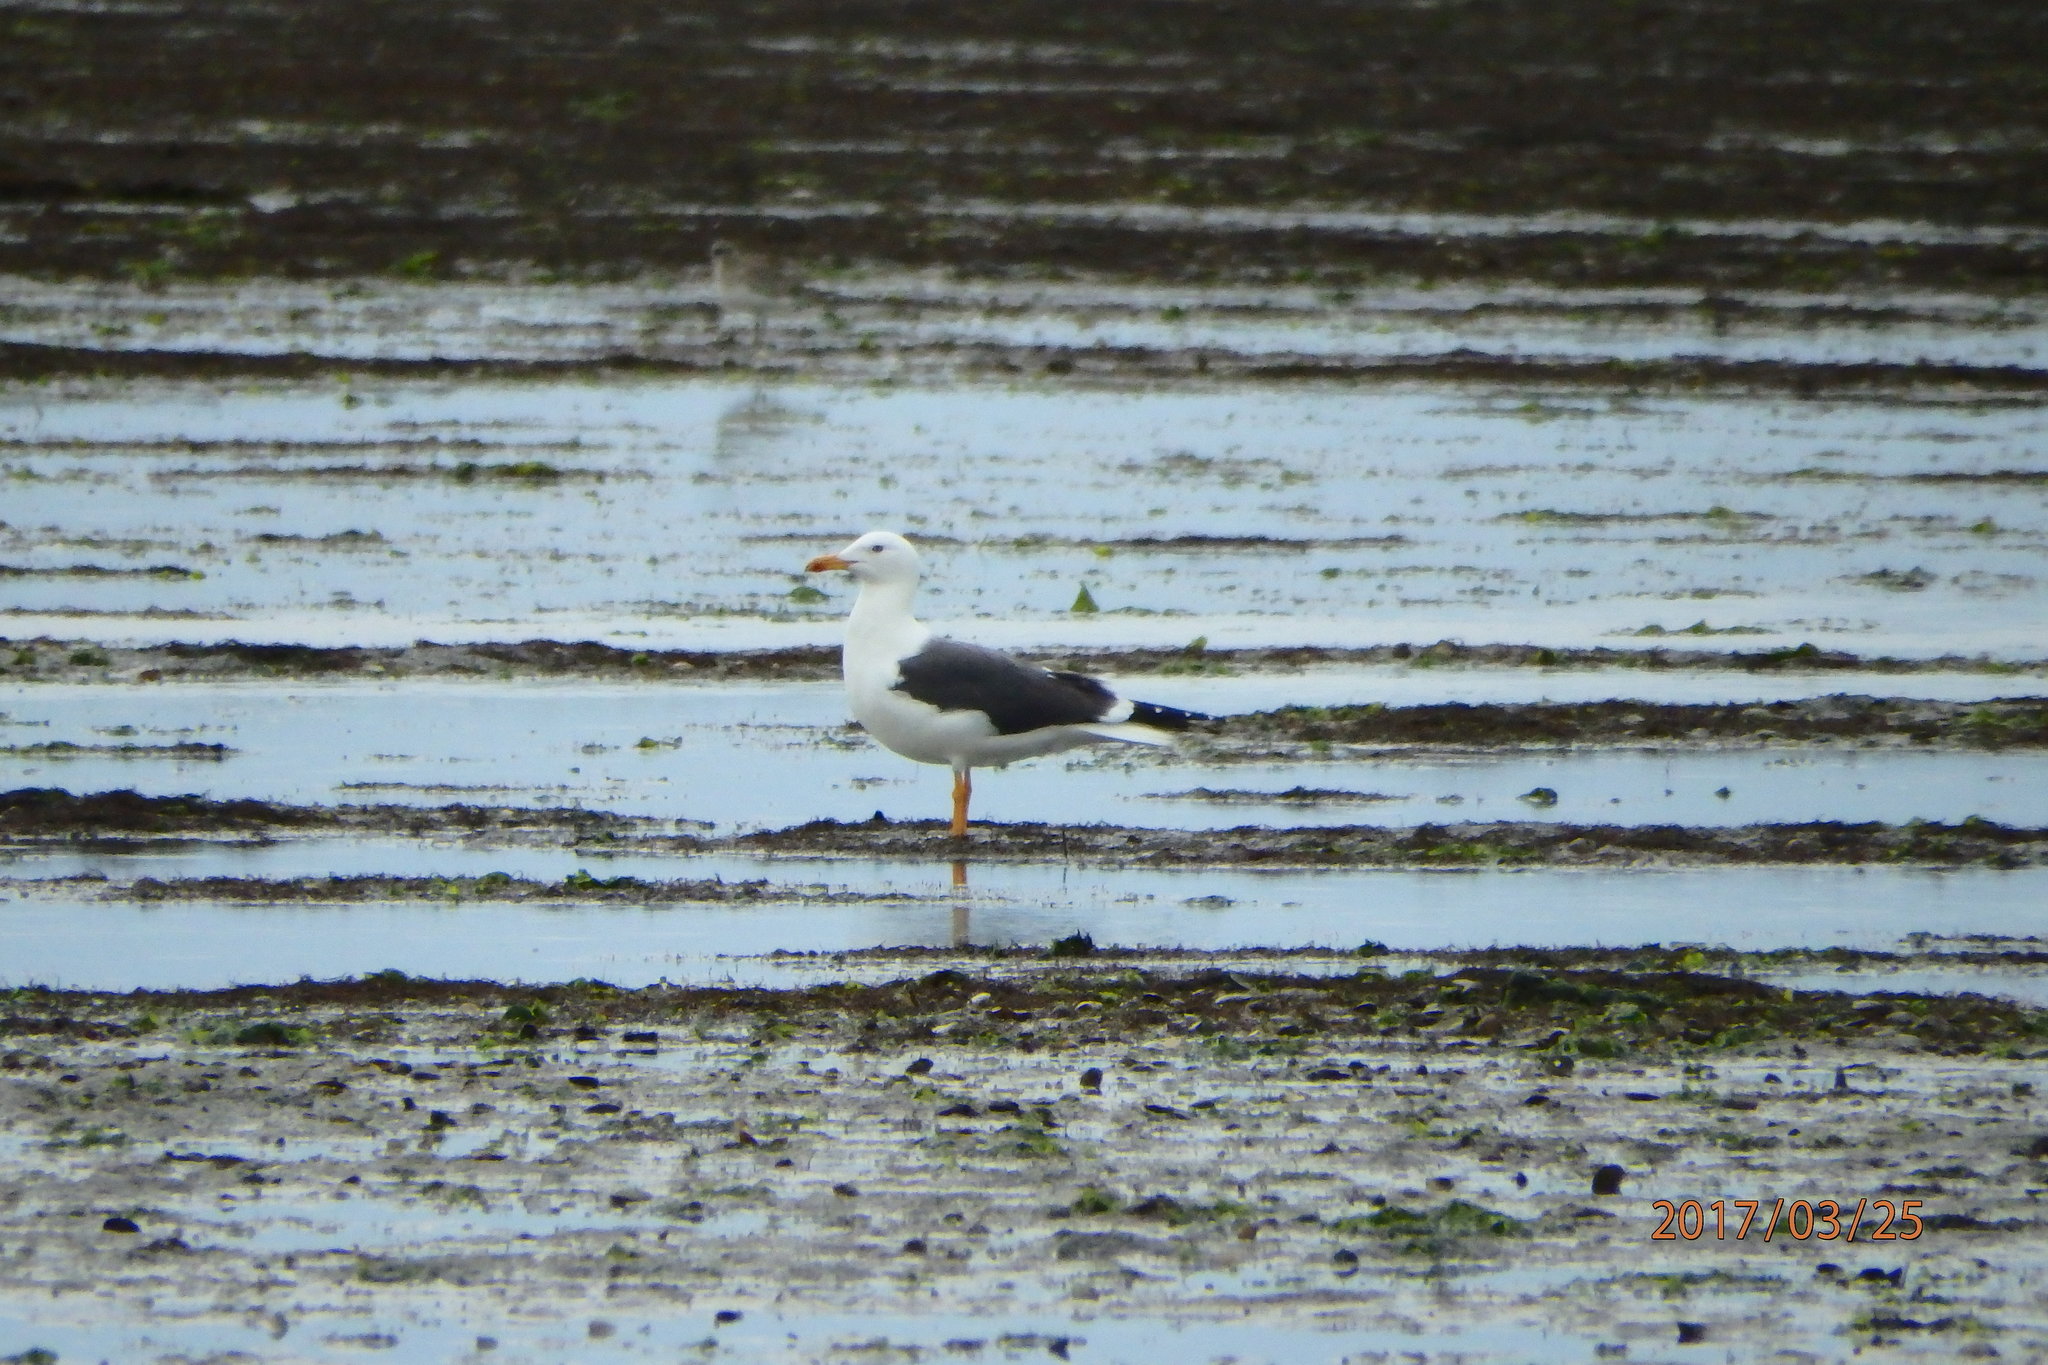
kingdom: Animalia
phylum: Chordata
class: Aves
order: Charadriiformes
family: Laridae
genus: Larus
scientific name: Larus fuscus
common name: Lesser black-backed gull
